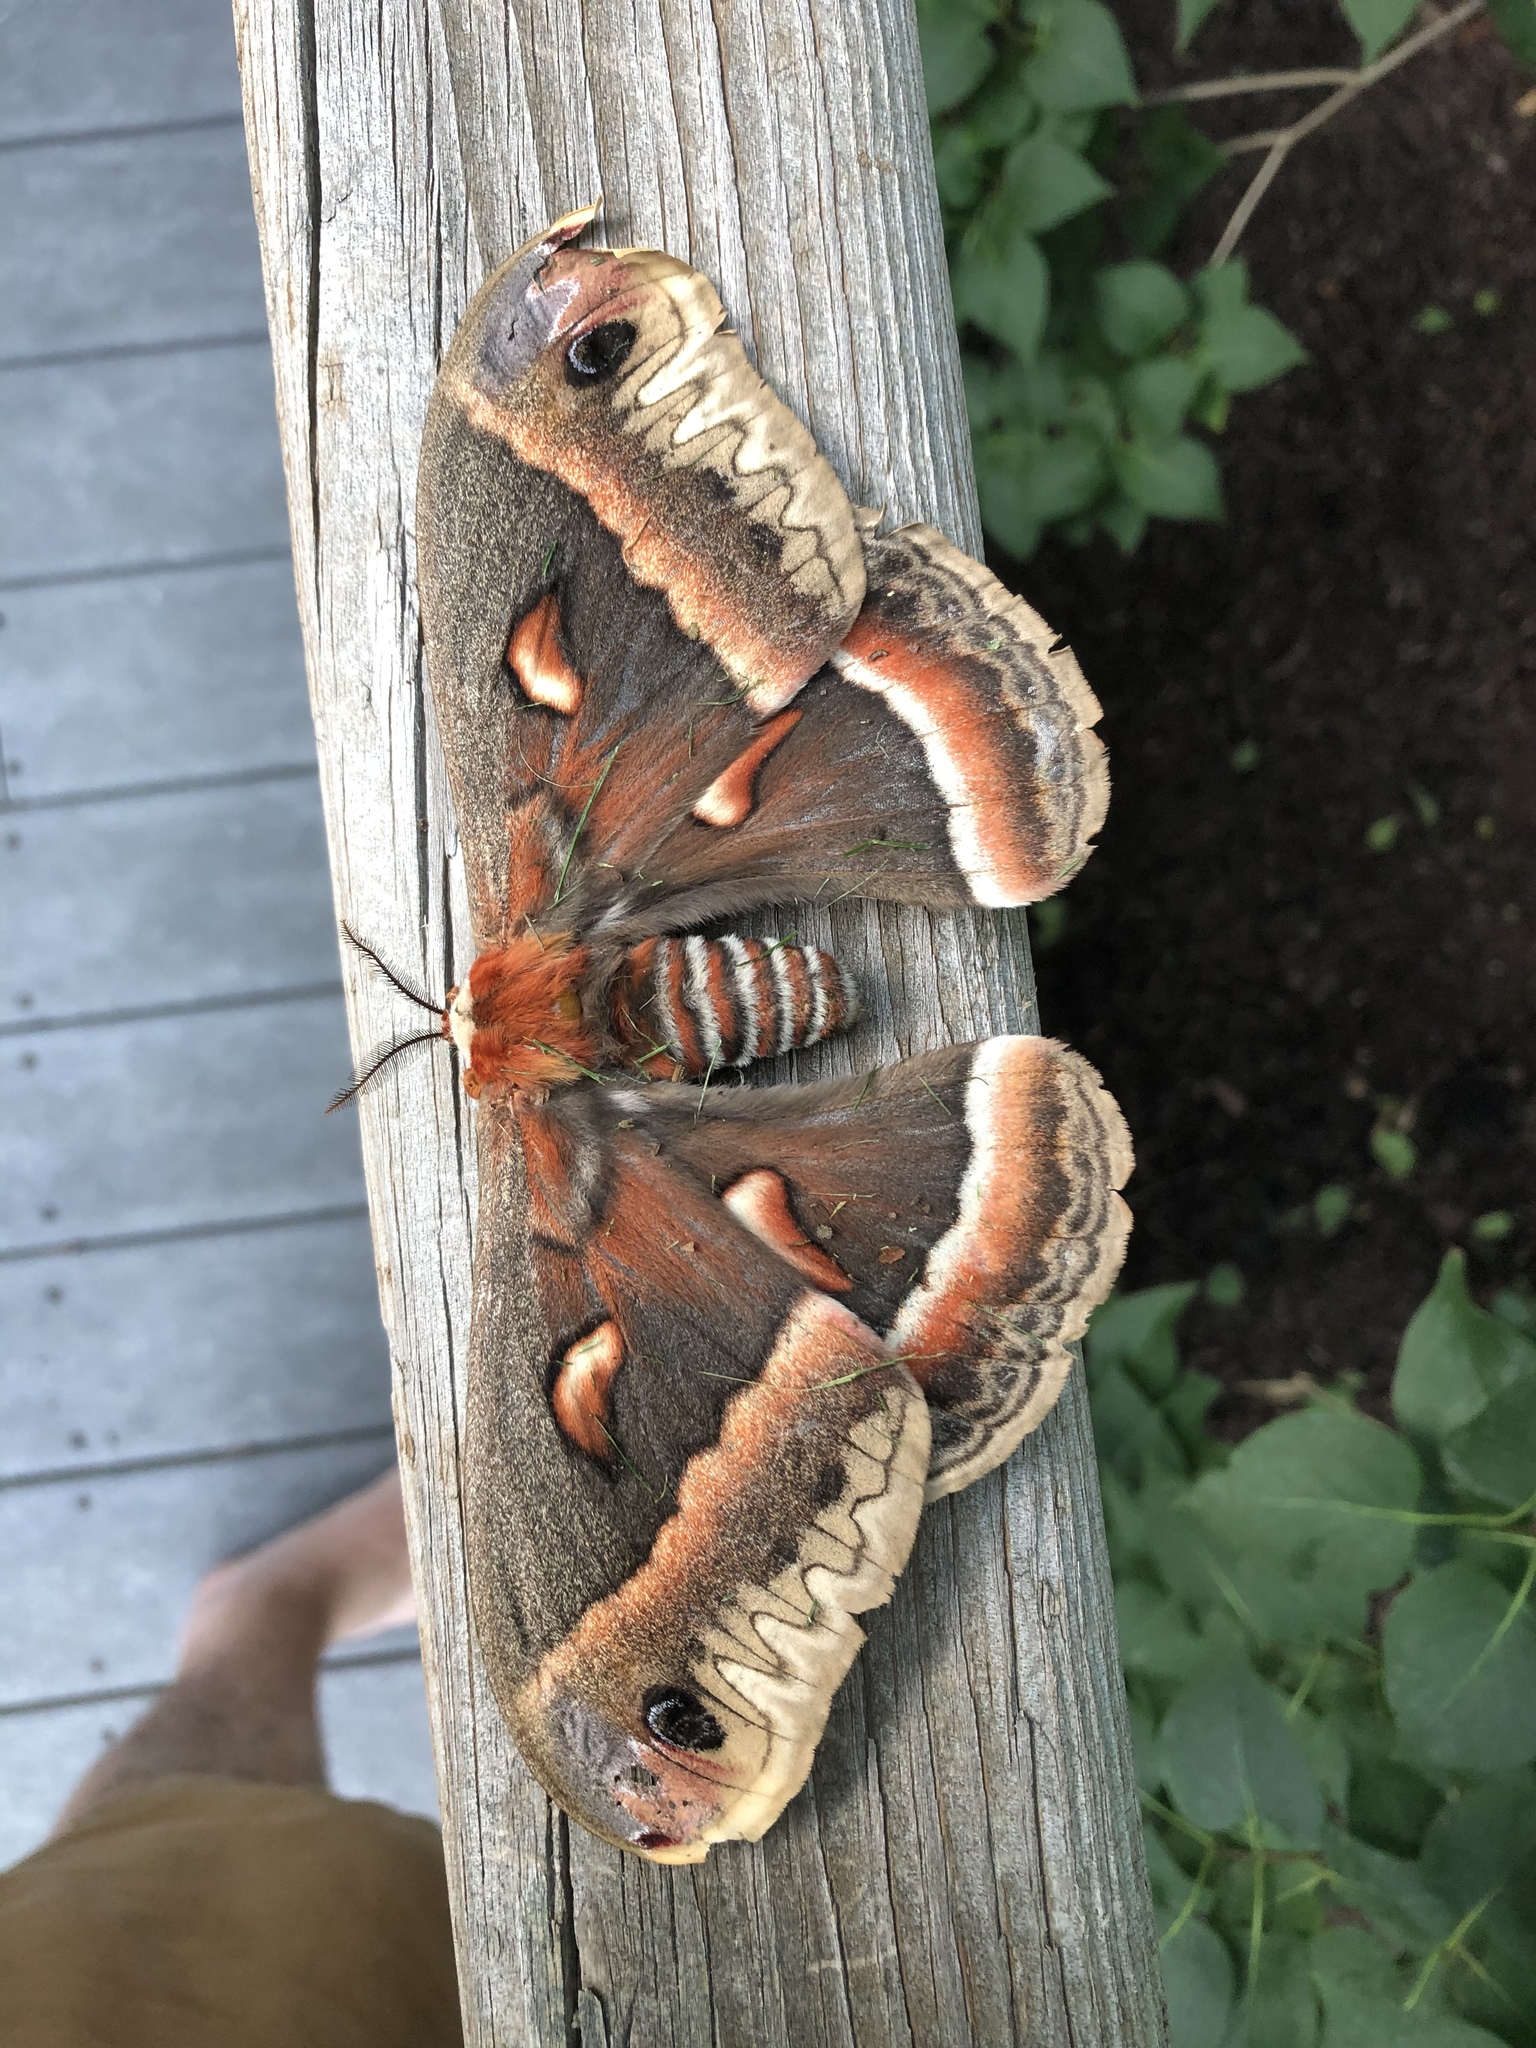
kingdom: Animalia
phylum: Arthropoda
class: Insecta
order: Lepidoptera
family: Saturniidae
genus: Hyalophora
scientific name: Hyalophora cecropia
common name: Cecropia silkmoth
